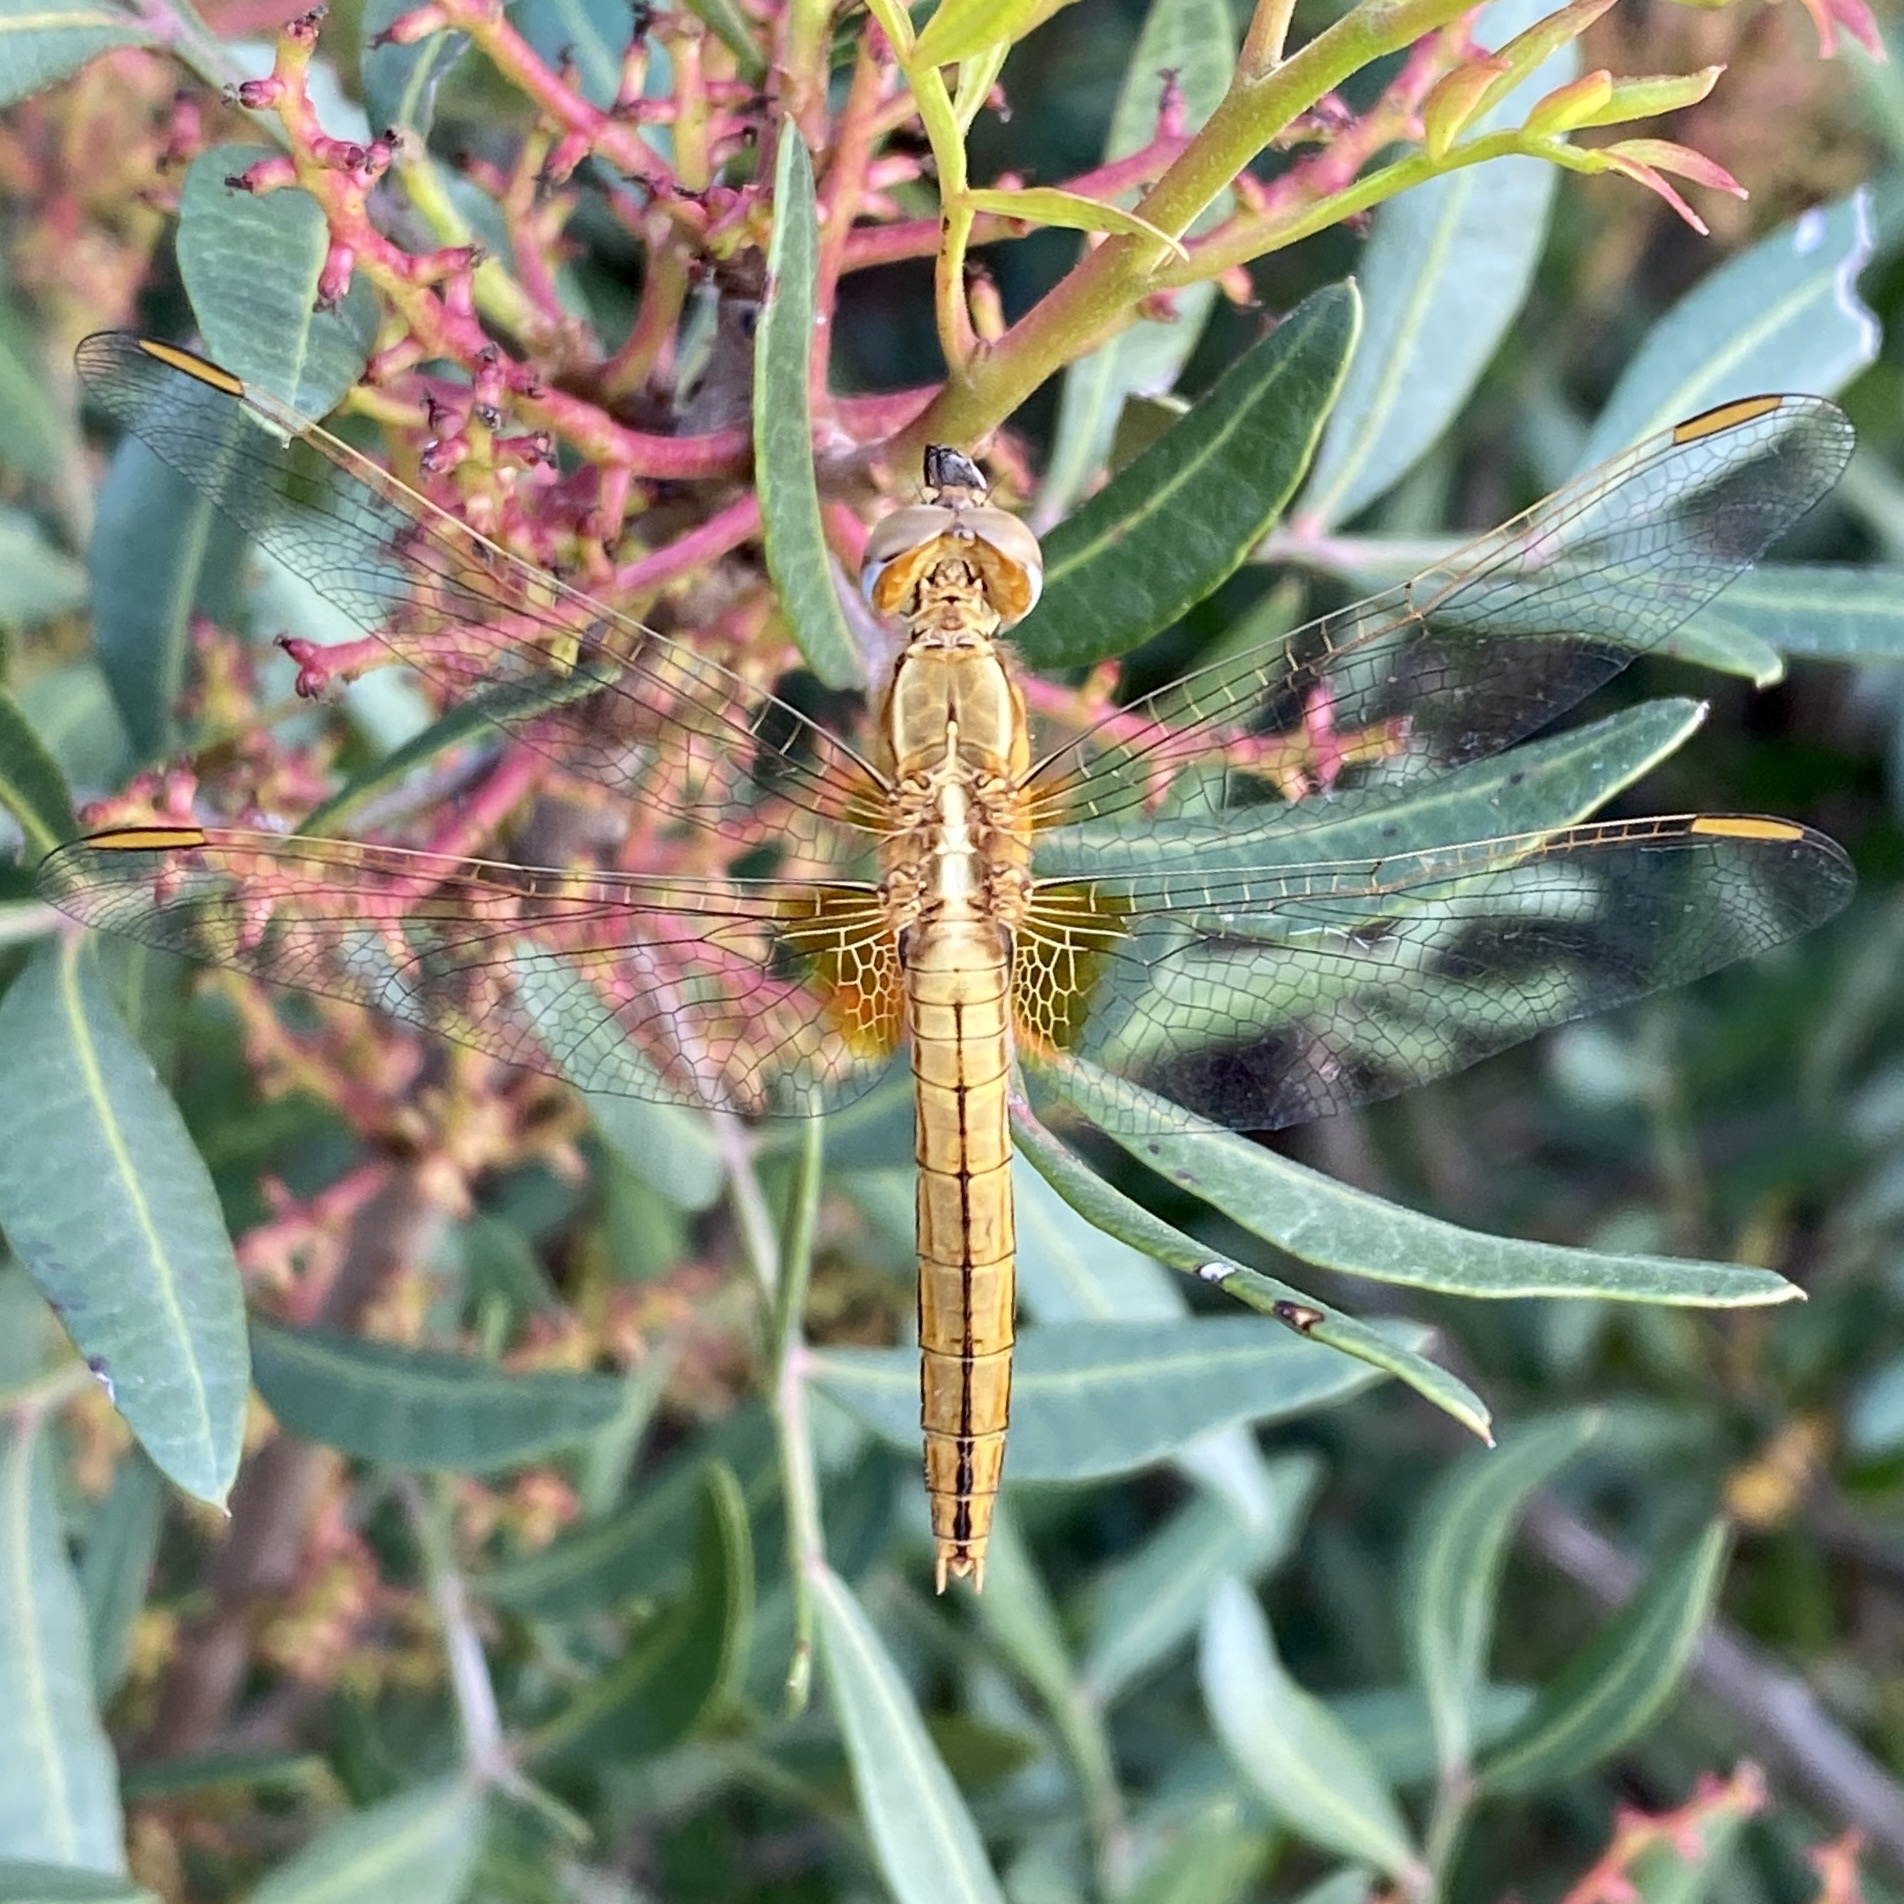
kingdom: Animalia
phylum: Arthropoda
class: Insecta
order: Odonata
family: Libellulidae
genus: Crocothemis
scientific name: Crocothemis erythraea
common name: Scarlet dragonfly
